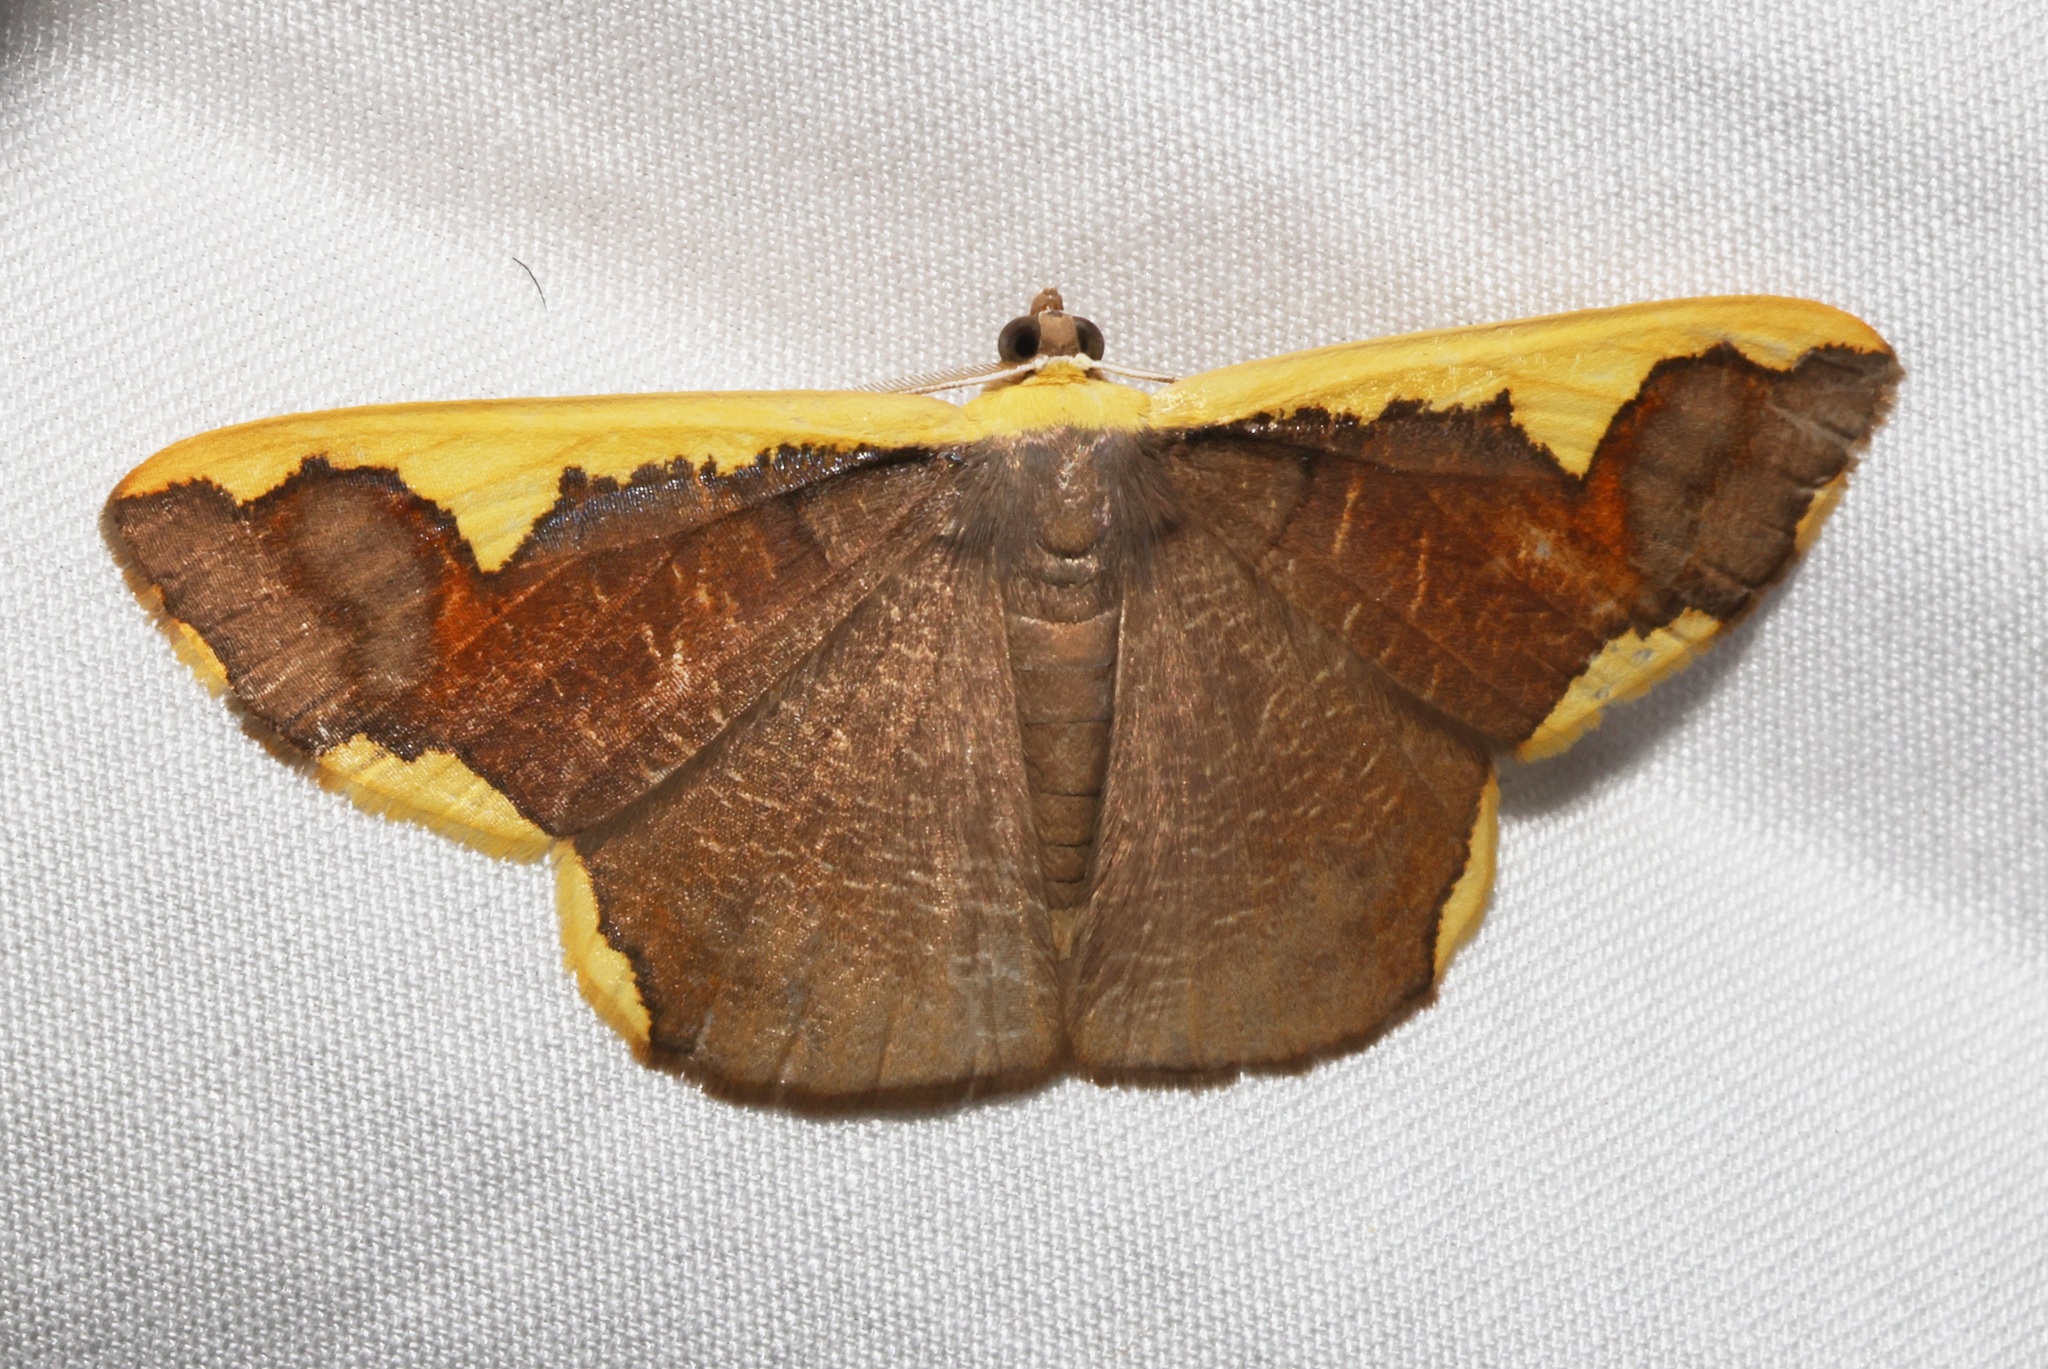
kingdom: Animalia
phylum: Arthropoda
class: Insecta
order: Lepidoptera
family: Geometridae
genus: Plutodes
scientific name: Plutodes costatus
